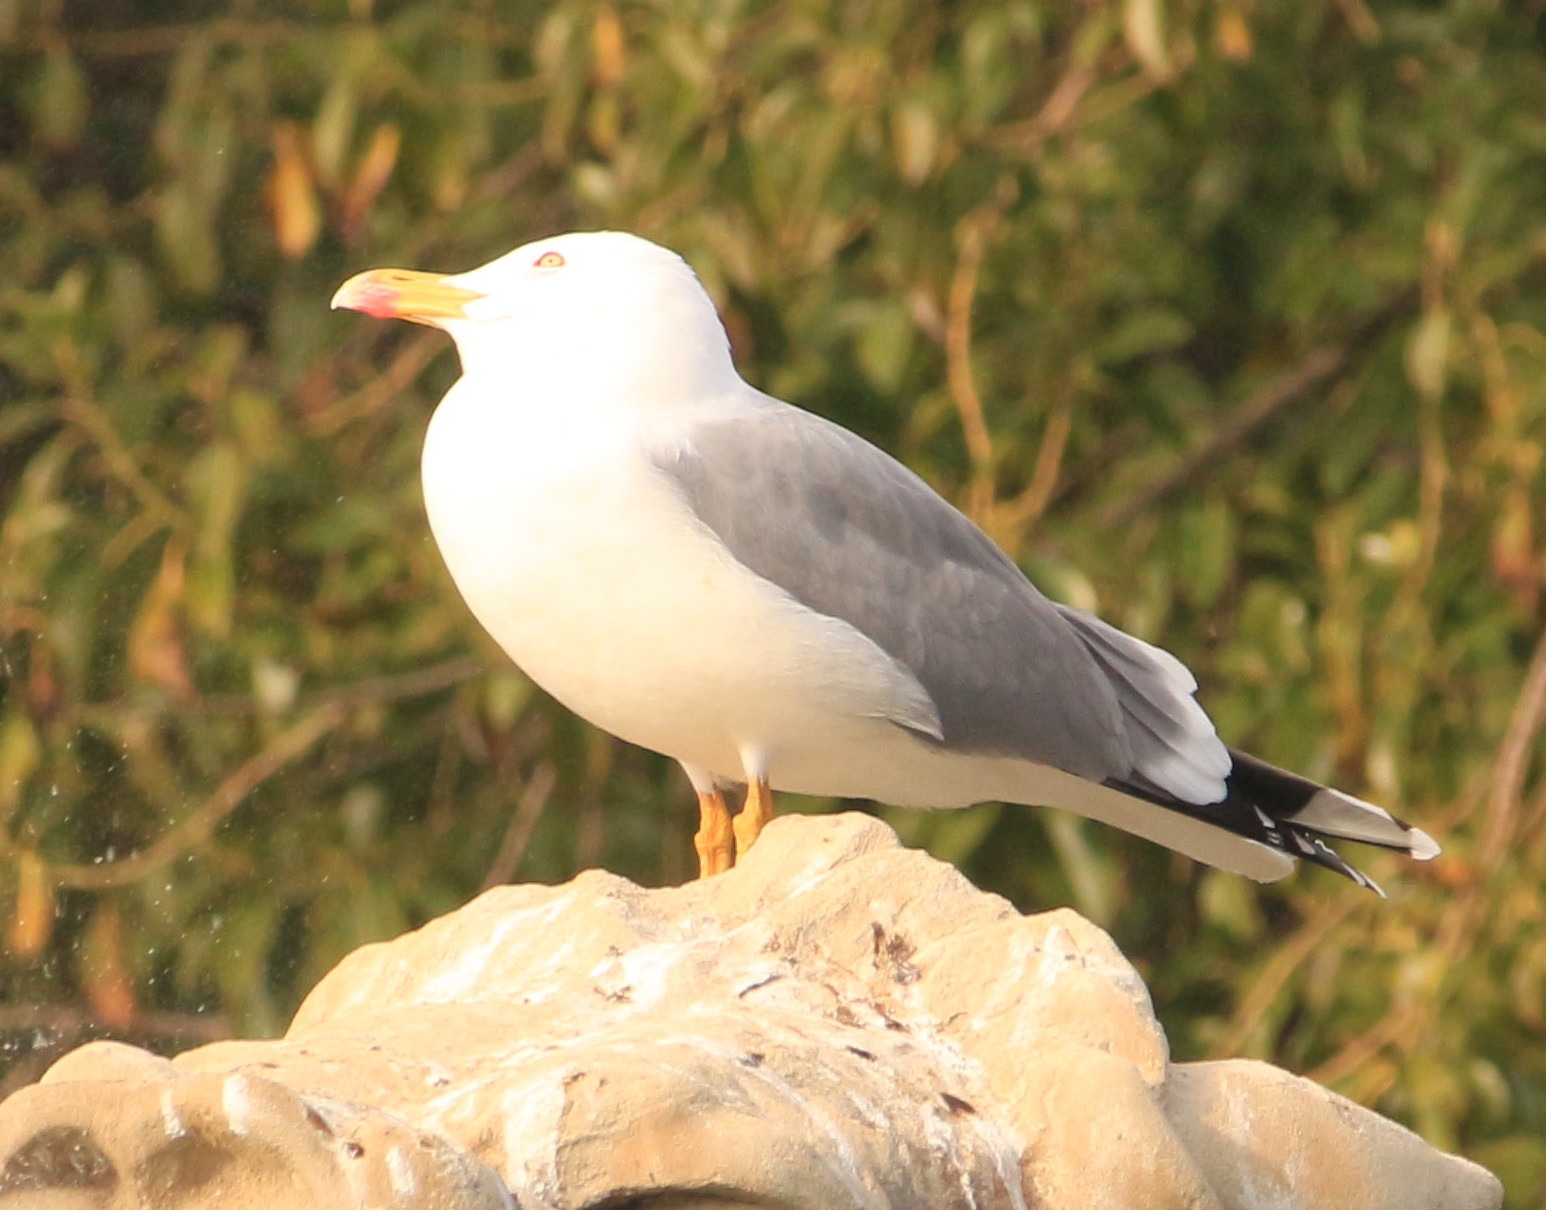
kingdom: Animalia
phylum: Chordata
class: Aves
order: Charadriiformes
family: Laridae
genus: Larus
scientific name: Larus michahellis
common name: Yellow-legged gull
